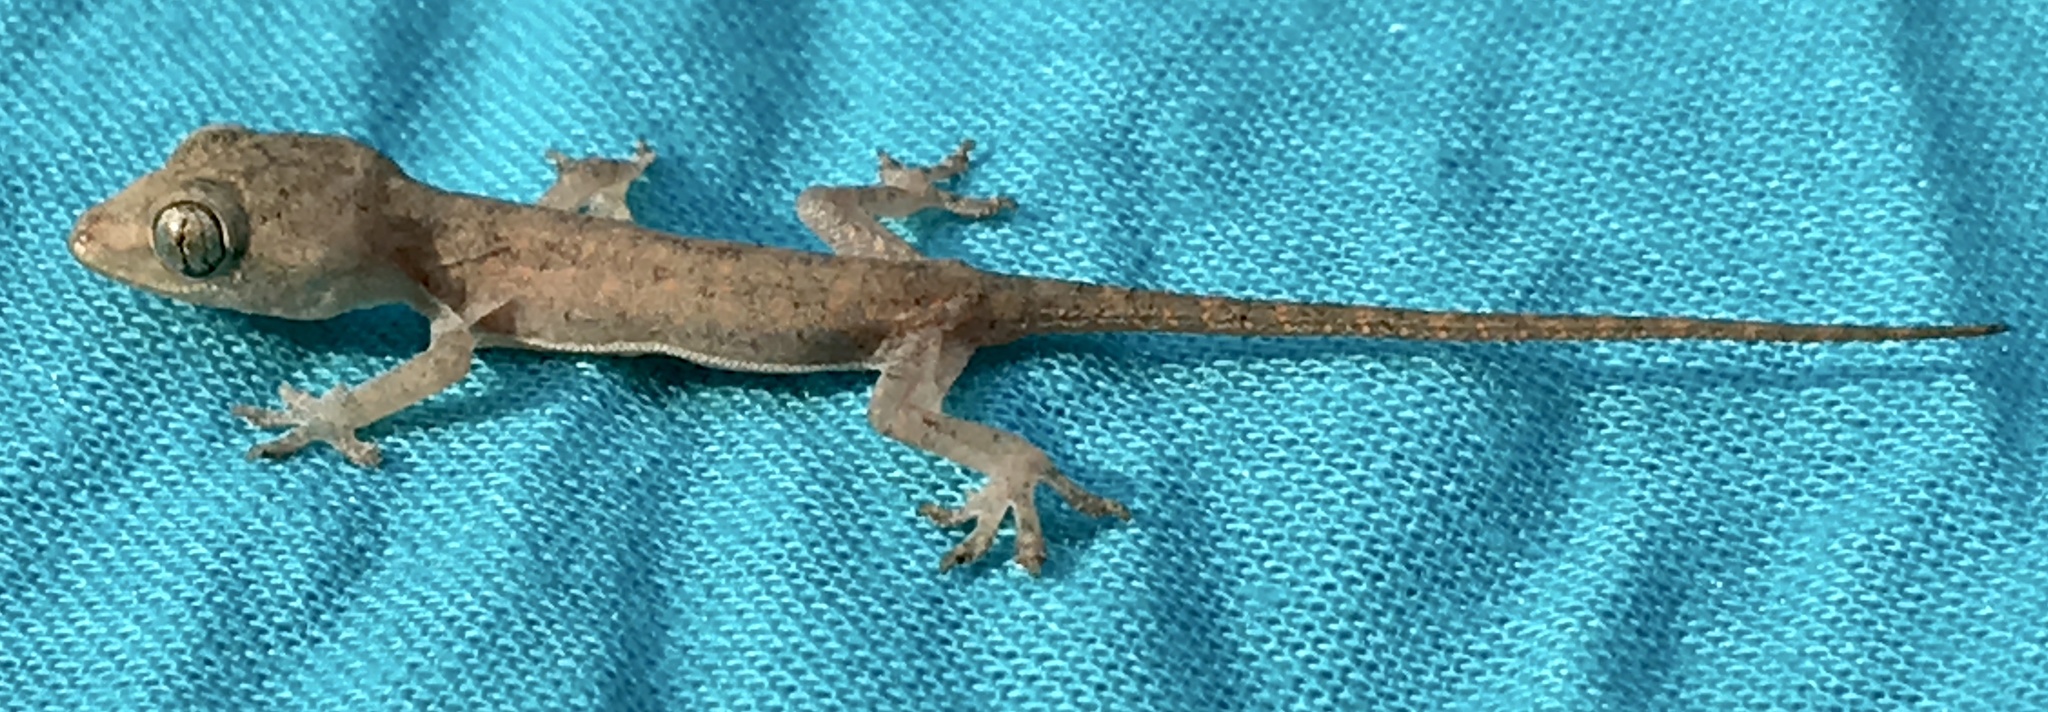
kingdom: Animalia
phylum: Chordata
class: Squamata
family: Gekkonidae
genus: Hemidactylus
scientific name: Hemidactylus frenatus
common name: Common house gecko
